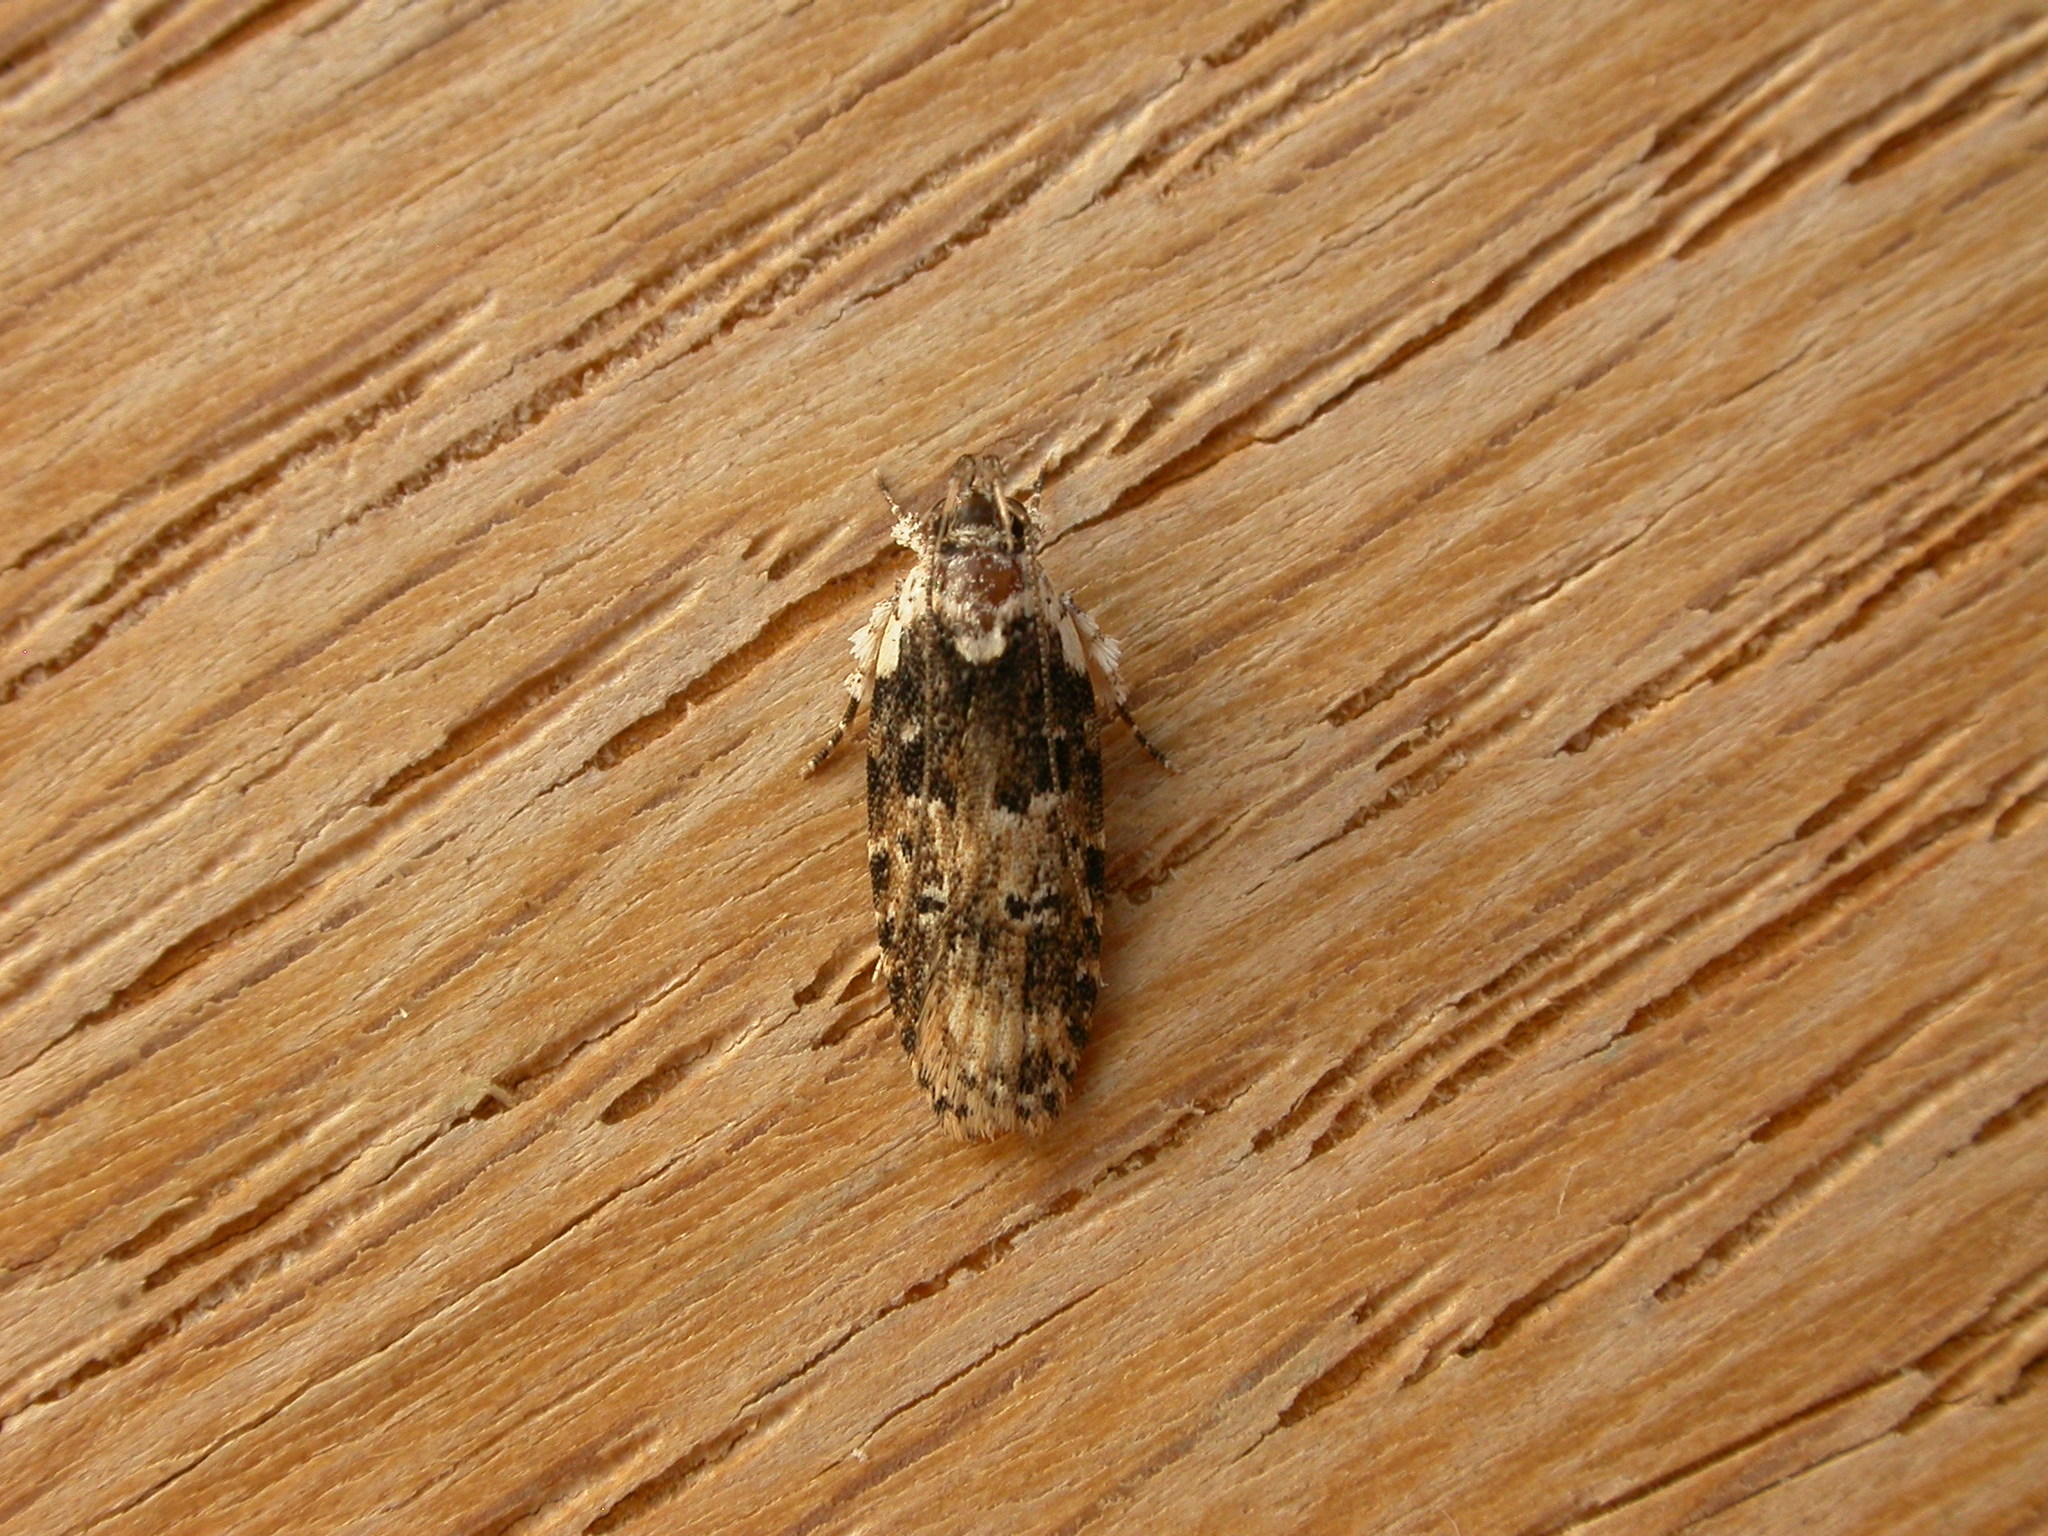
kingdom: Animalia
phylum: Arthropoda
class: Insecta
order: Lepidoptera
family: Gelechiidae
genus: Ardozyga
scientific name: Ardozyga sodalisella
